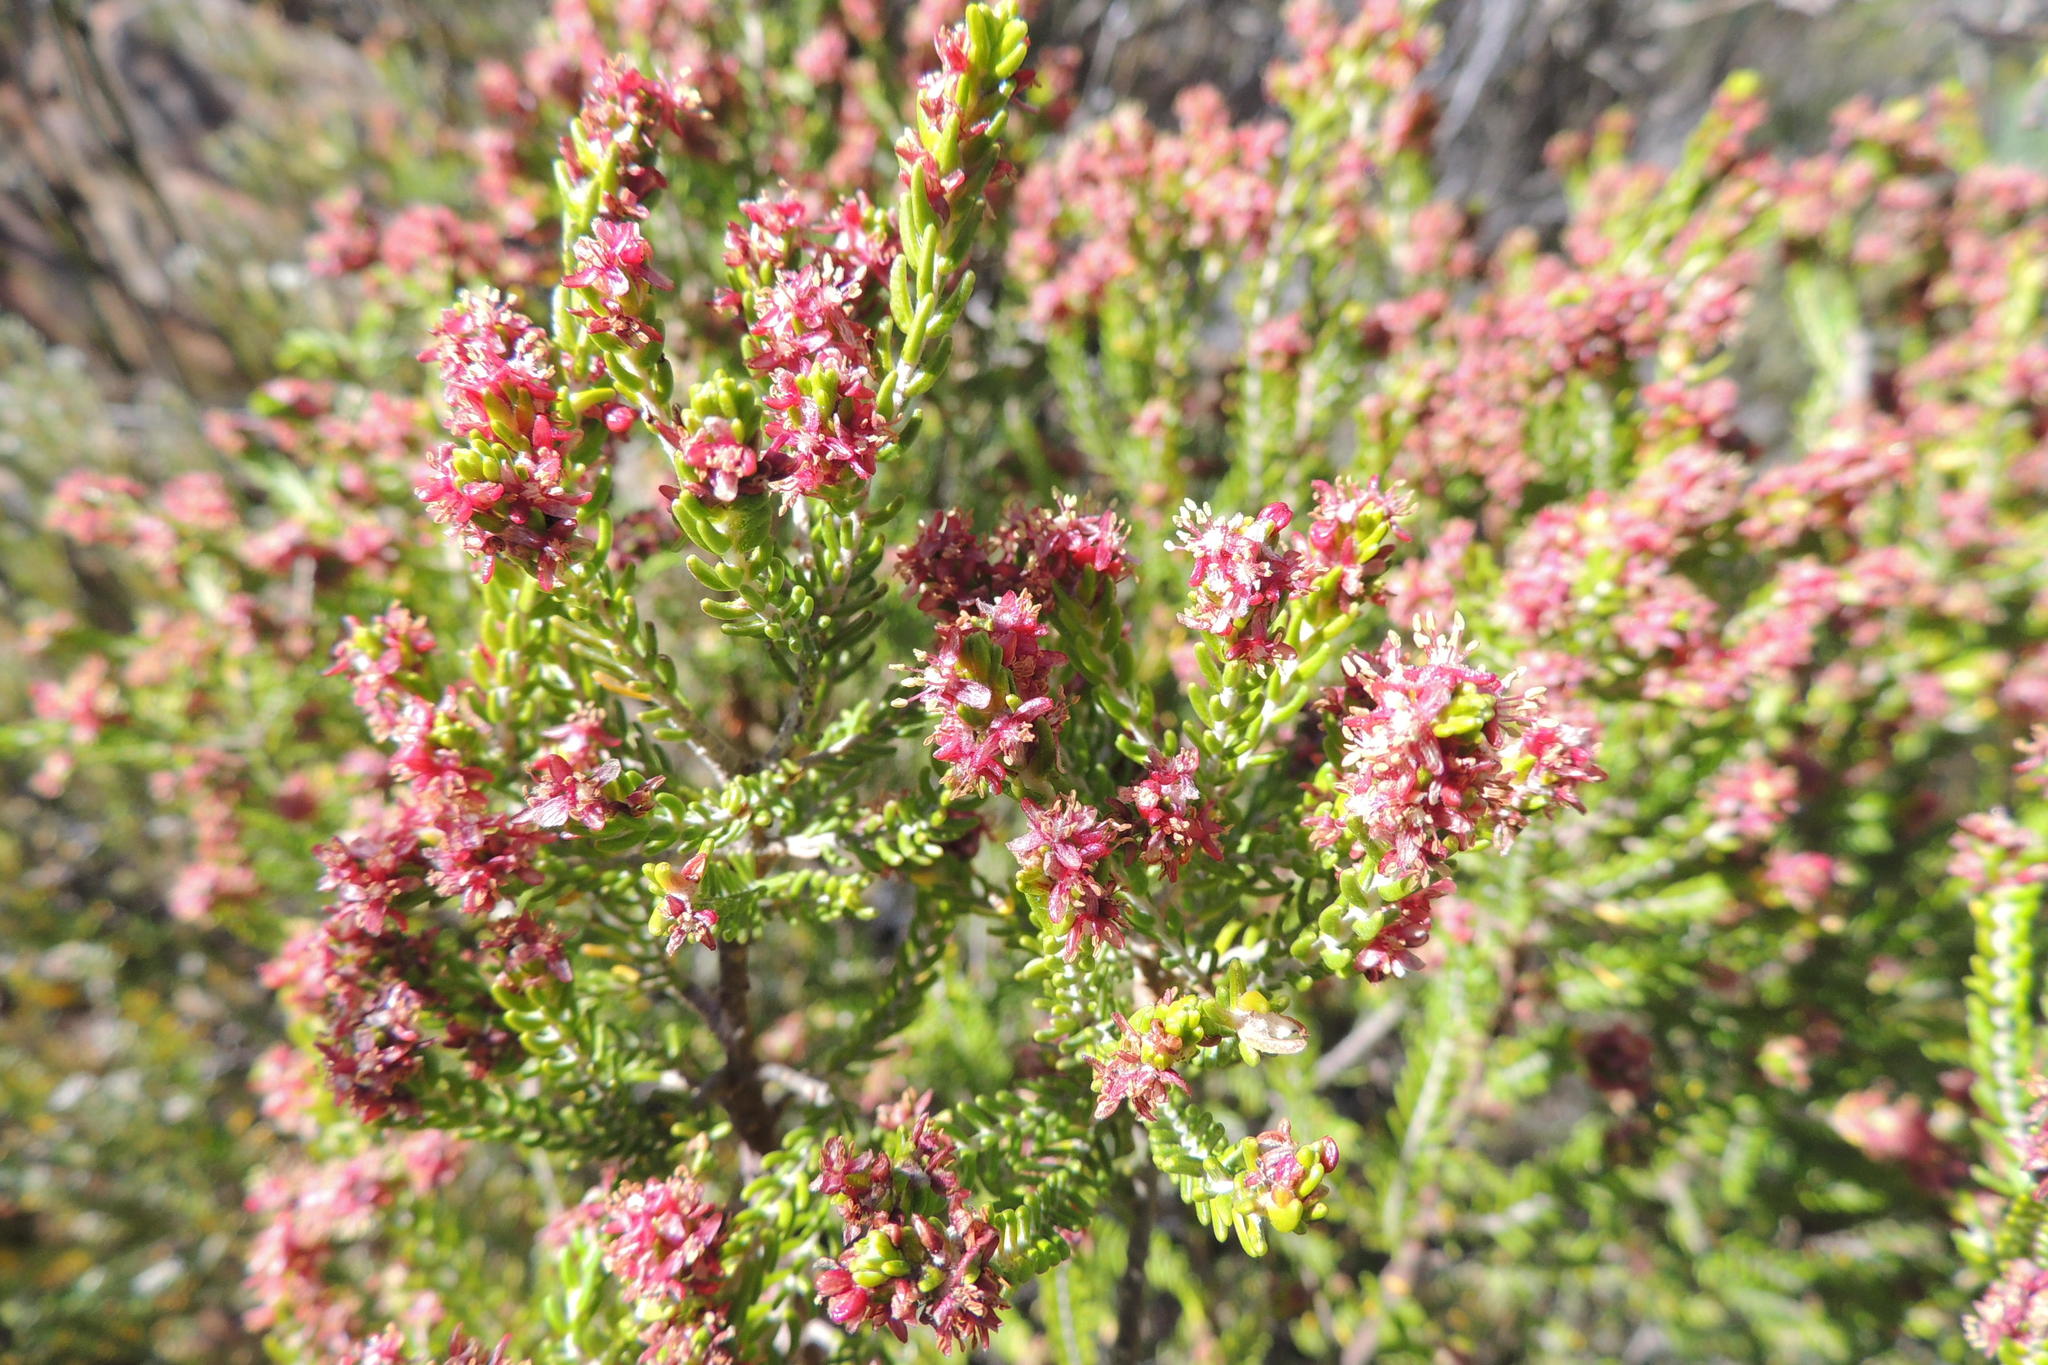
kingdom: Plantae
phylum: Tracheophyta
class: Magnoliopsida
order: Malvales
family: Thymelaeaceae
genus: Passerina
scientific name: Passerina obtusifolia
